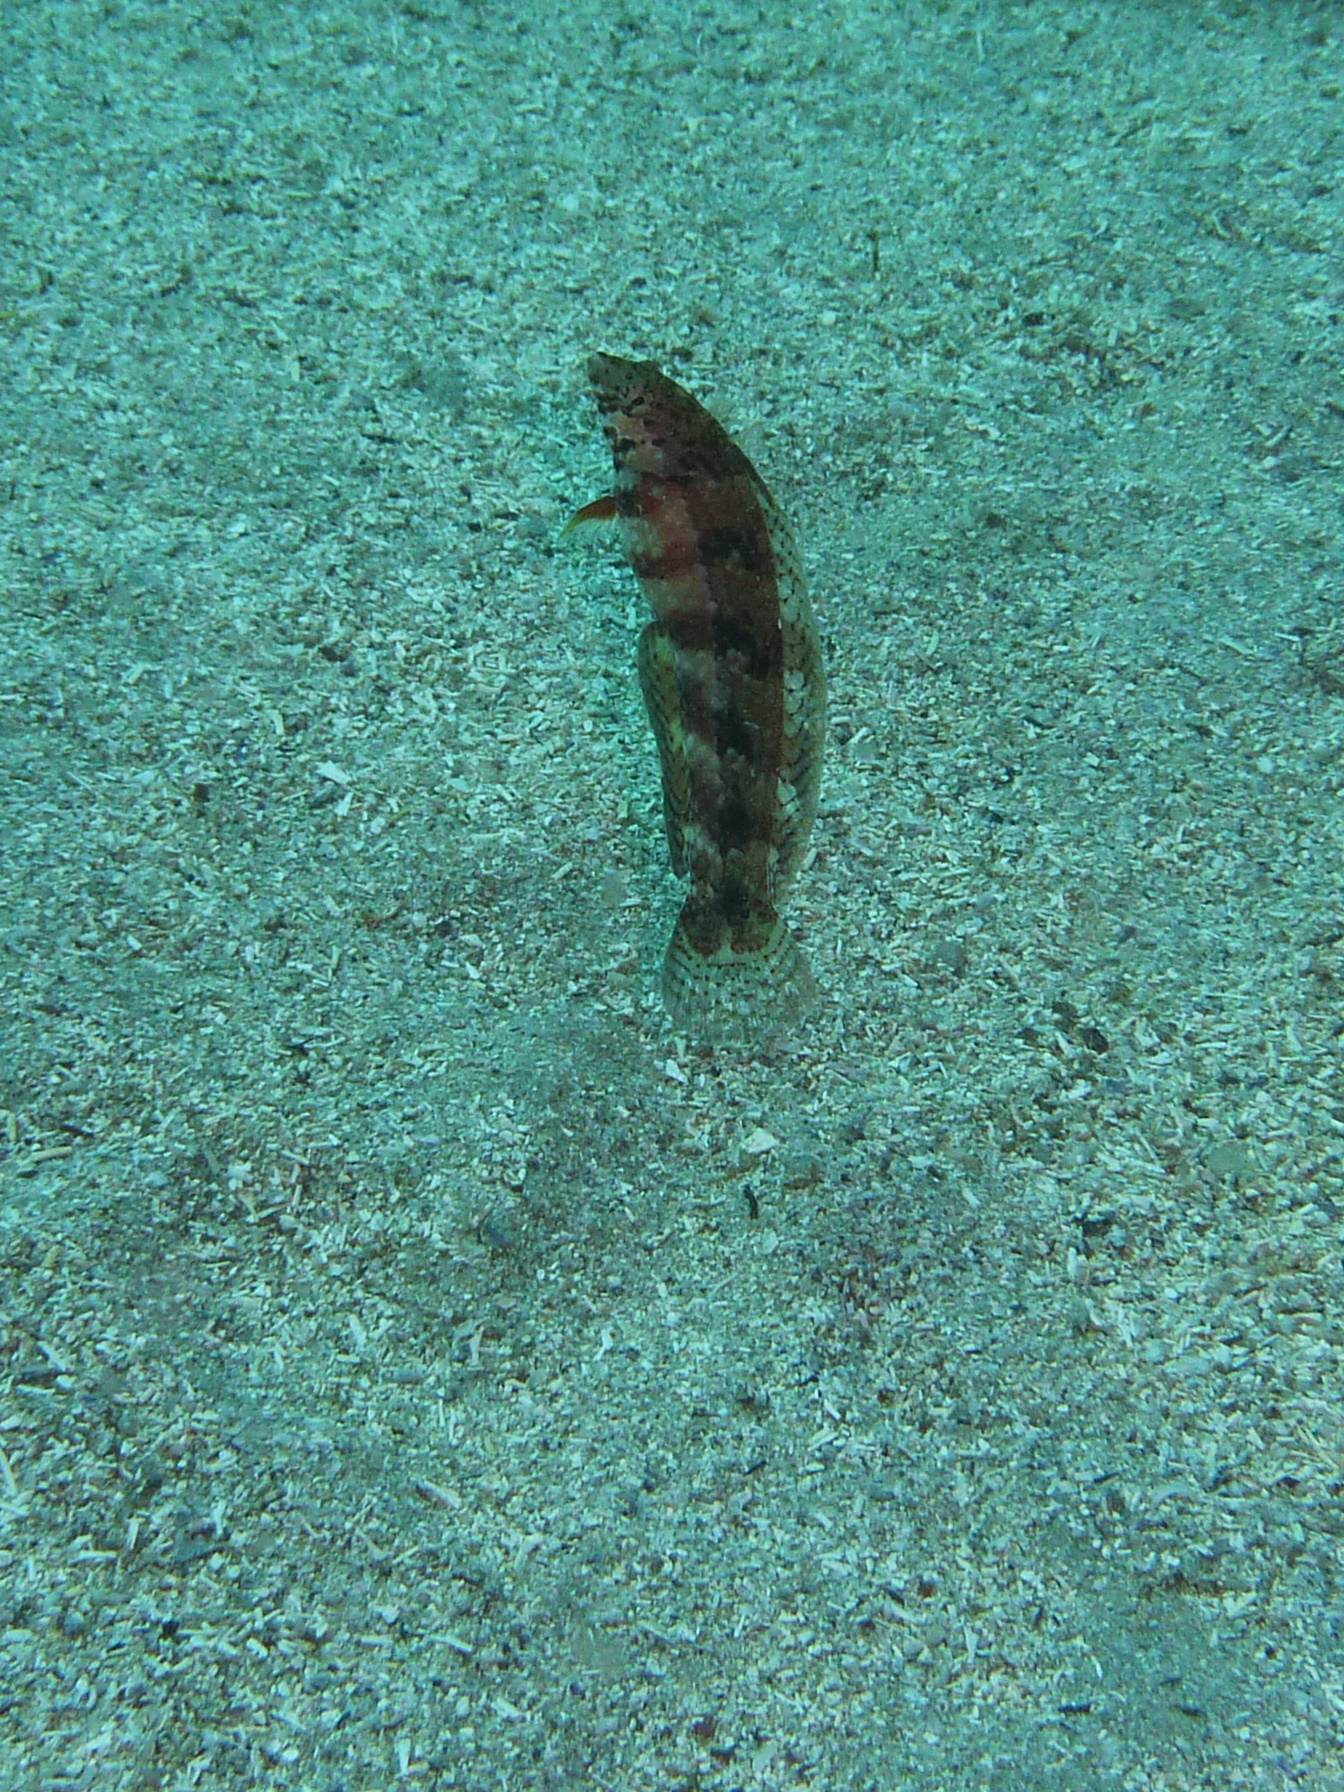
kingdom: Animalia
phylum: Chordata
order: Perciformes
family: Labridae
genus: Eupetrichthys
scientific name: Eupetrichthys angustipes
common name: Snake-skin wrasse
